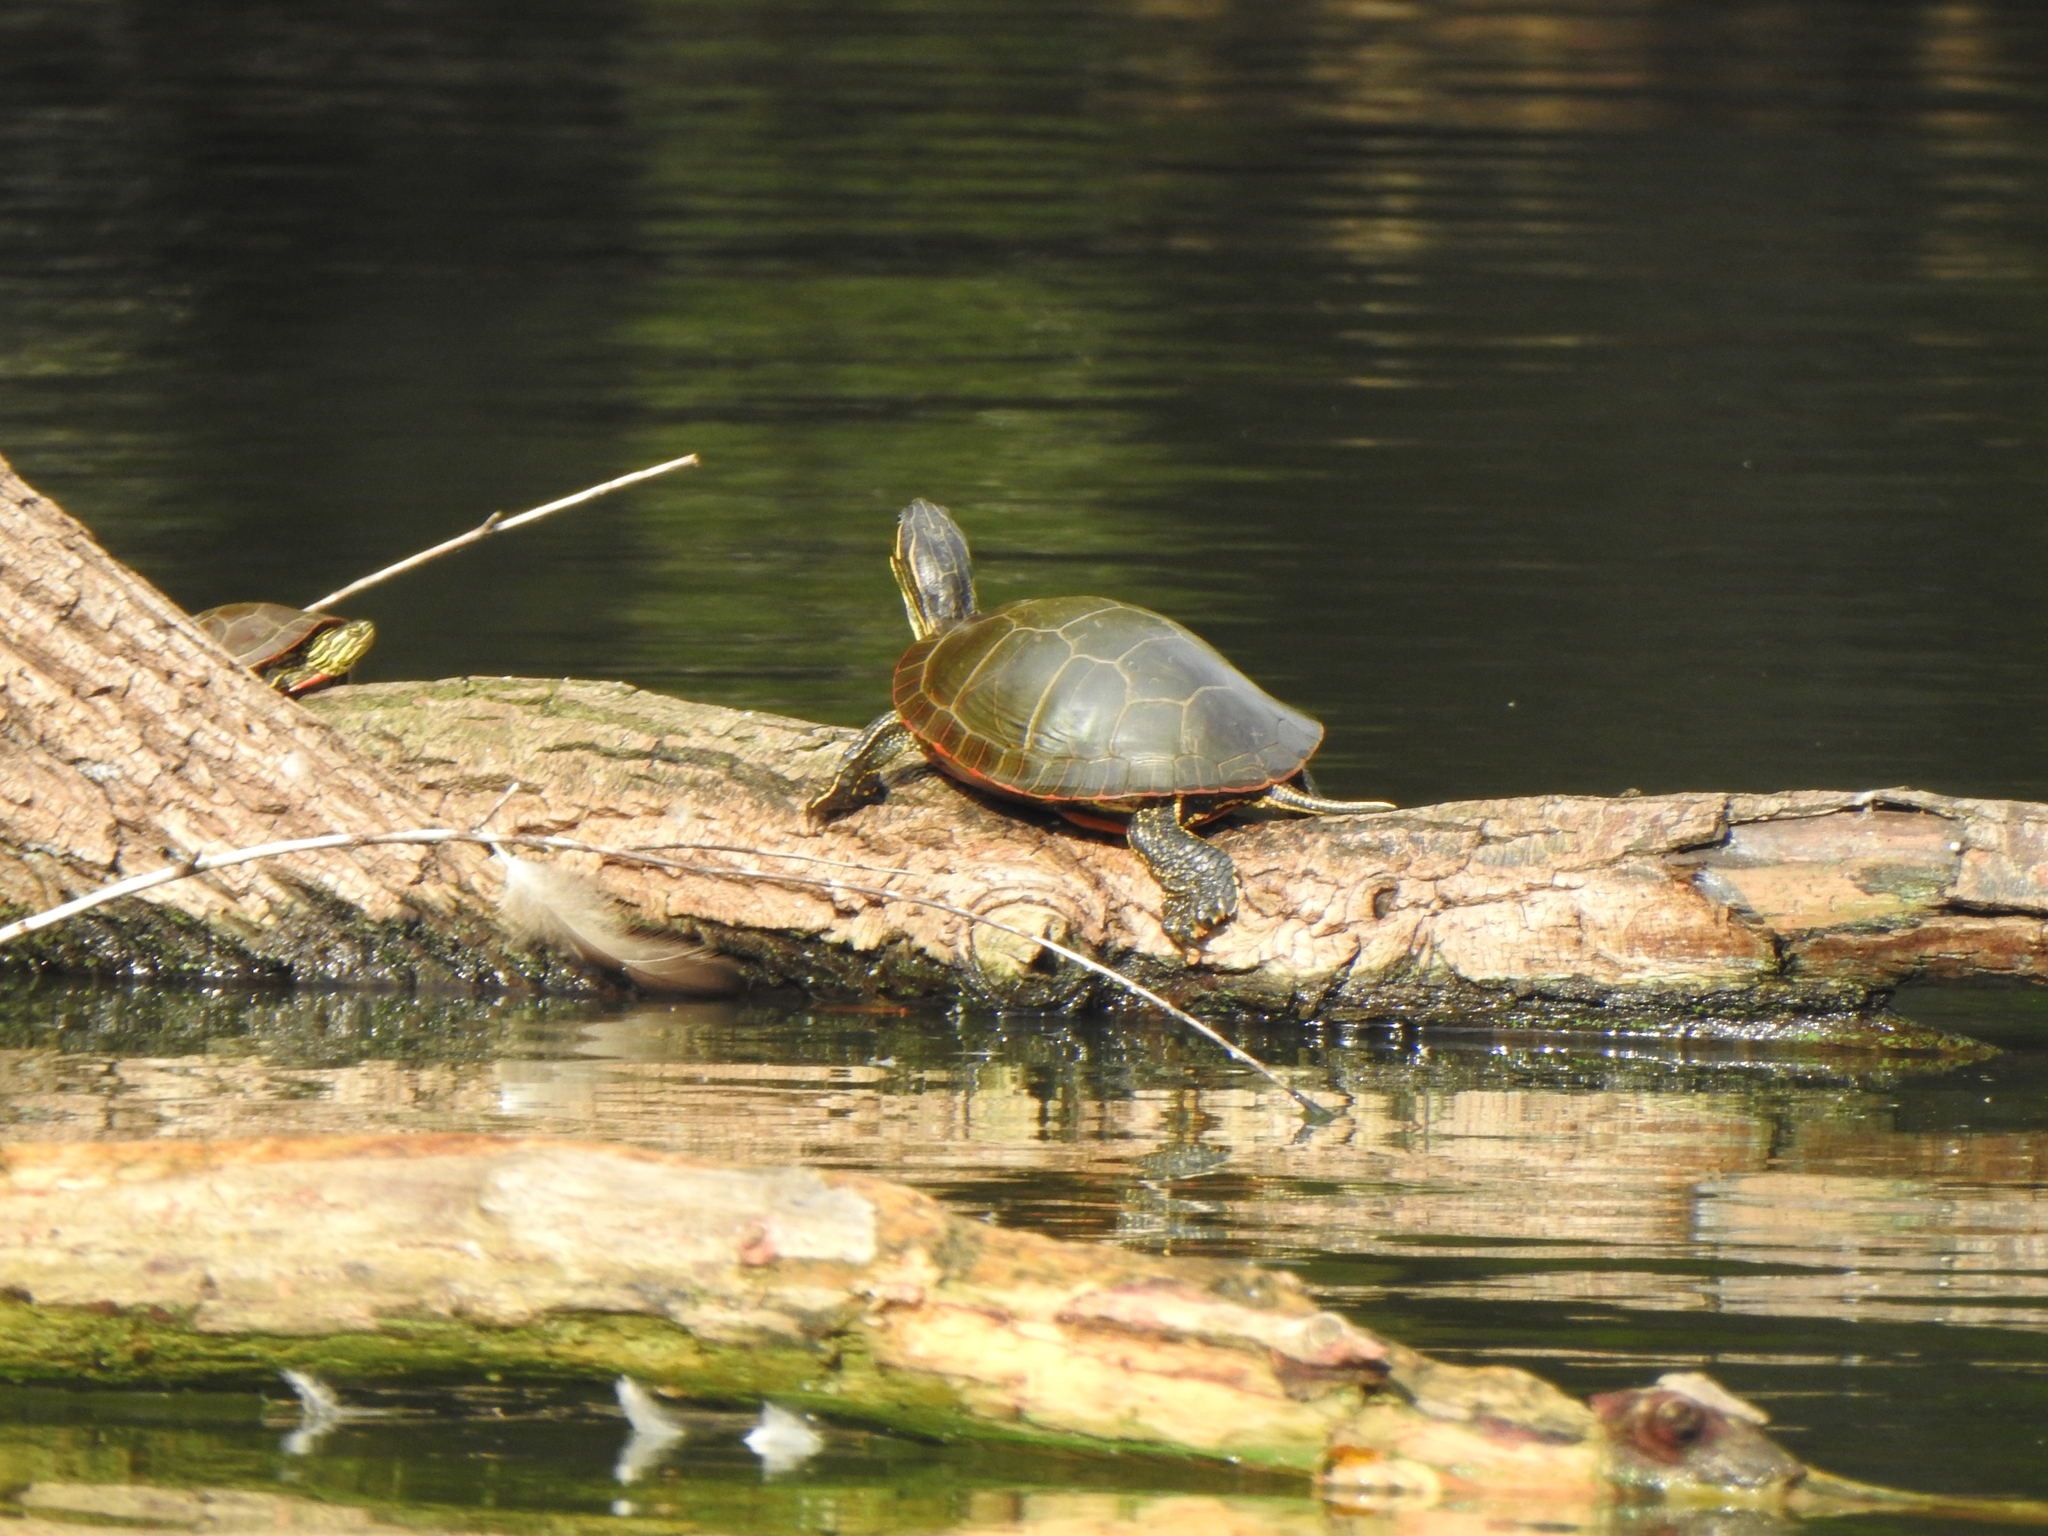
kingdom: Animalia
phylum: Chordata
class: Testudines
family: Emydidae
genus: Chrysemys
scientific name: Chrysemys picta
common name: Painted turtle
